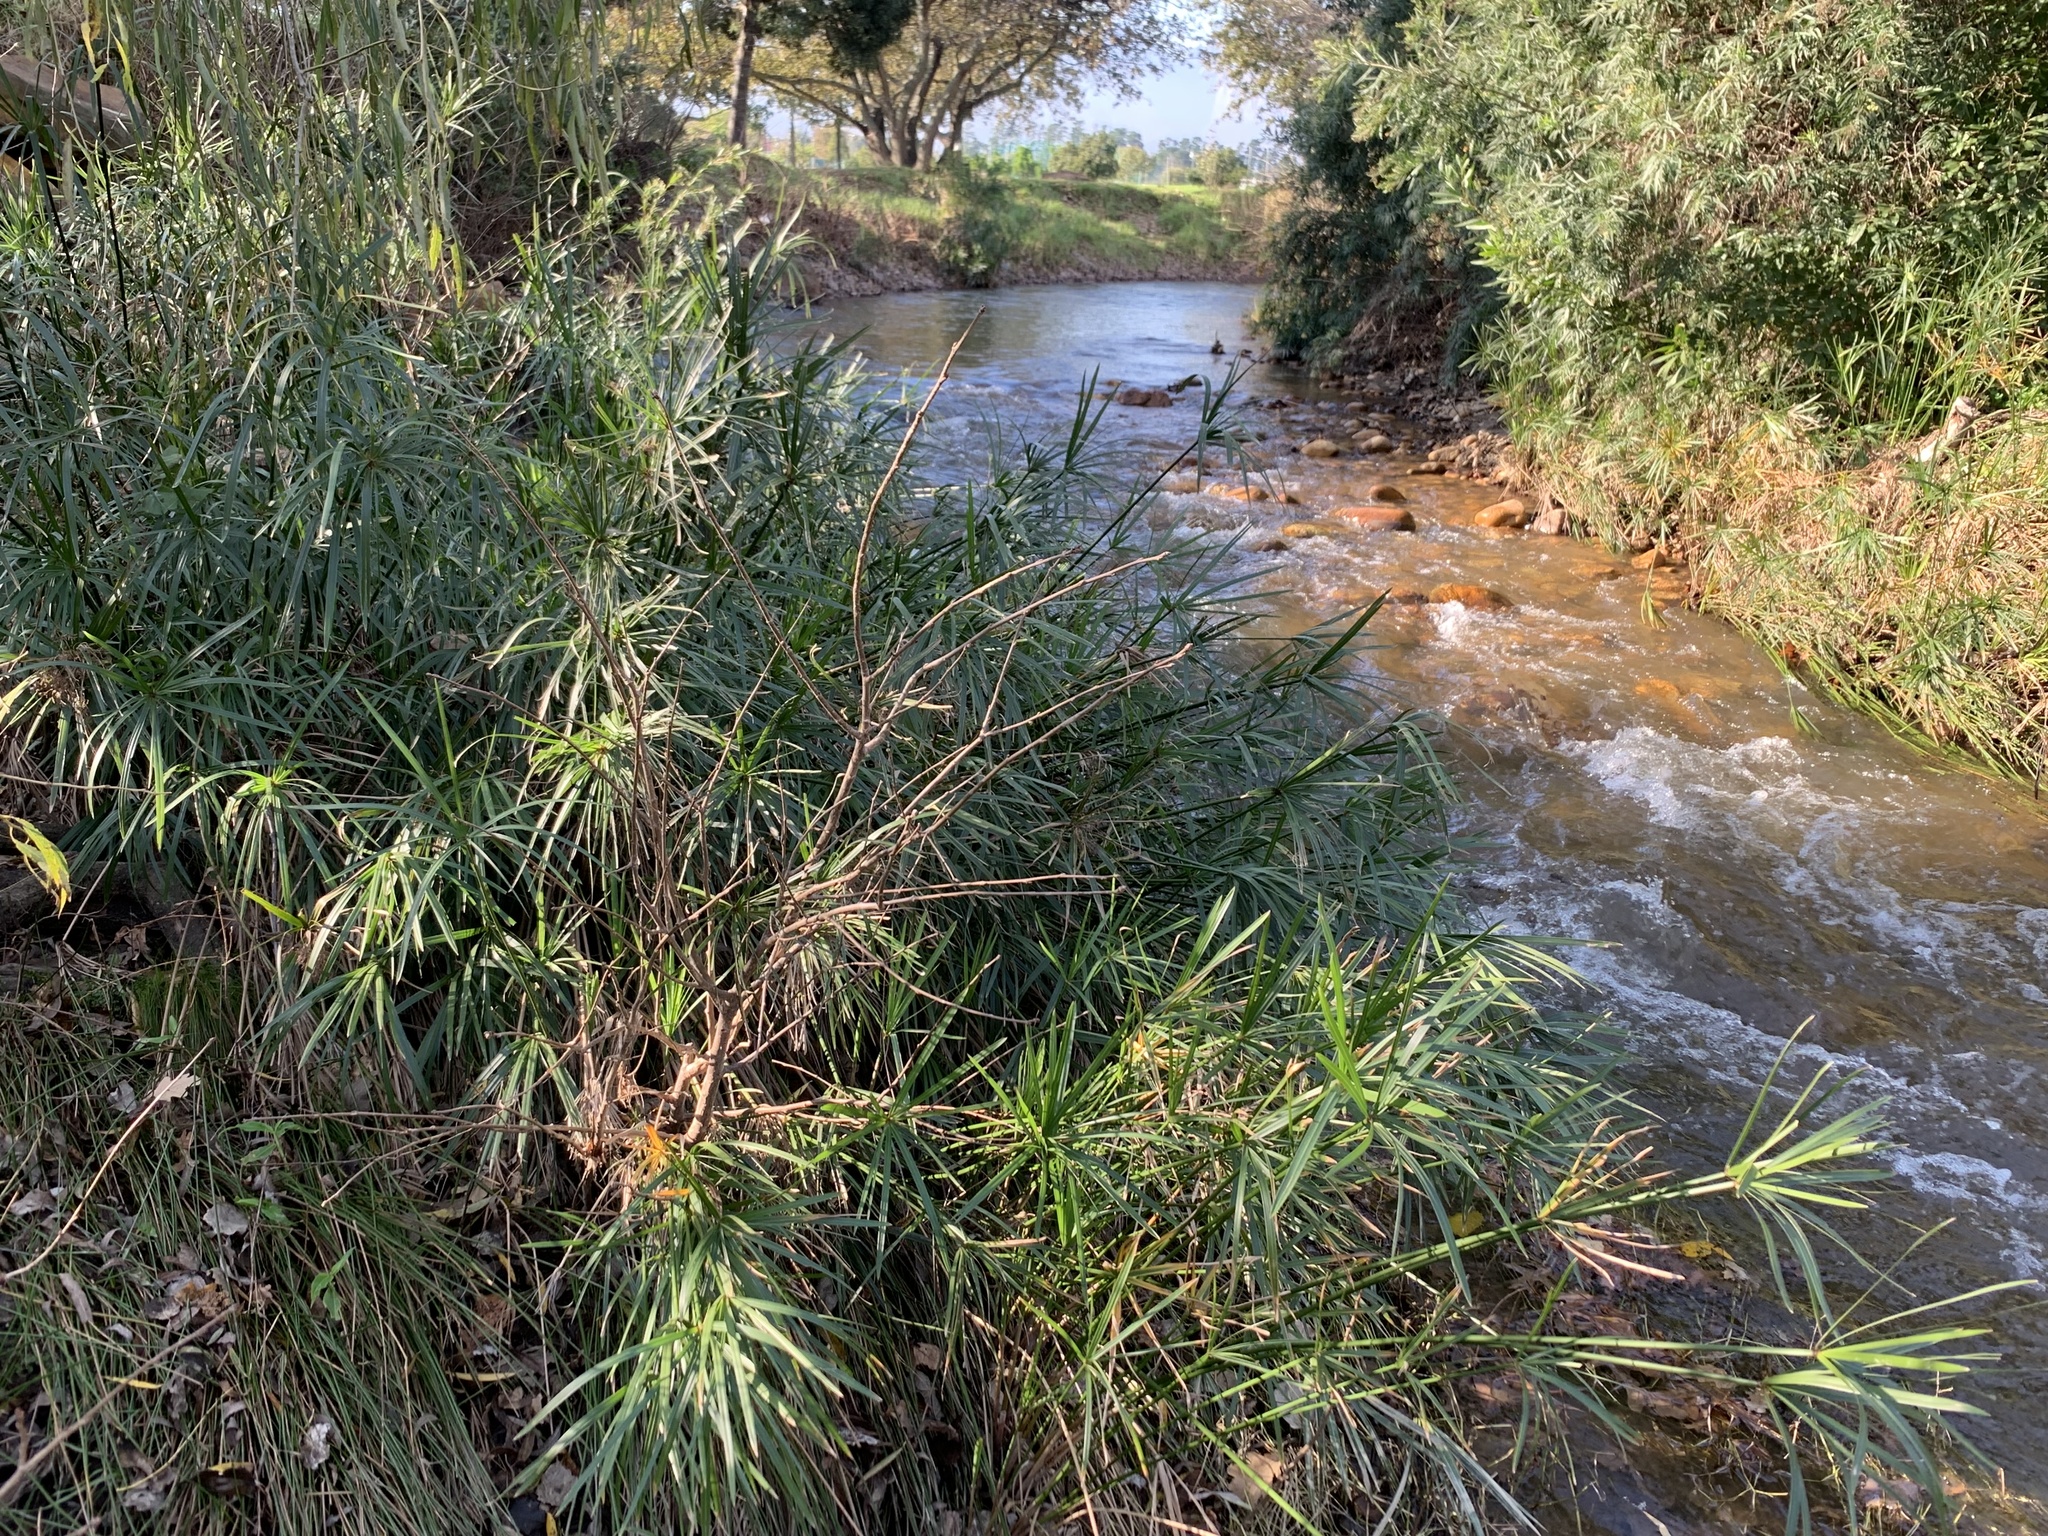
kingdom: Plantae
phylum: Tracheophyta
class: Liliopsida
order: Poales
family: Cyperaceae
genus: Cyperus
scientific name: Cyperus textilis
